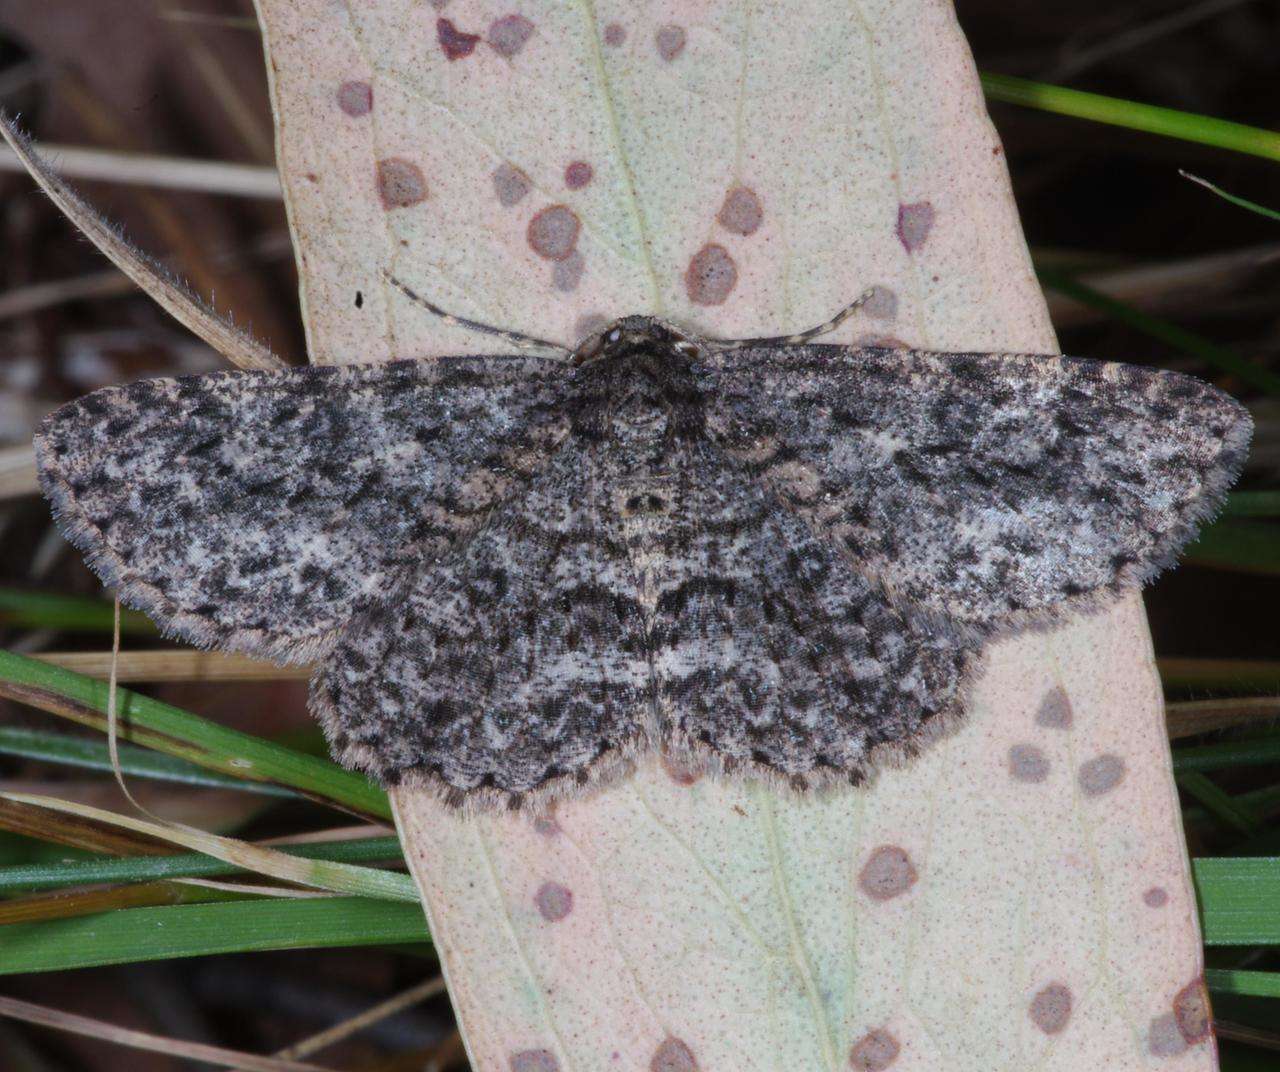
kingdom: Animalia
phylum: Arthropoda
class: Insecta
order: Lepidoptera
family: Geometridae
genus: Ectropis
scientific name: Ectropis fractaria
